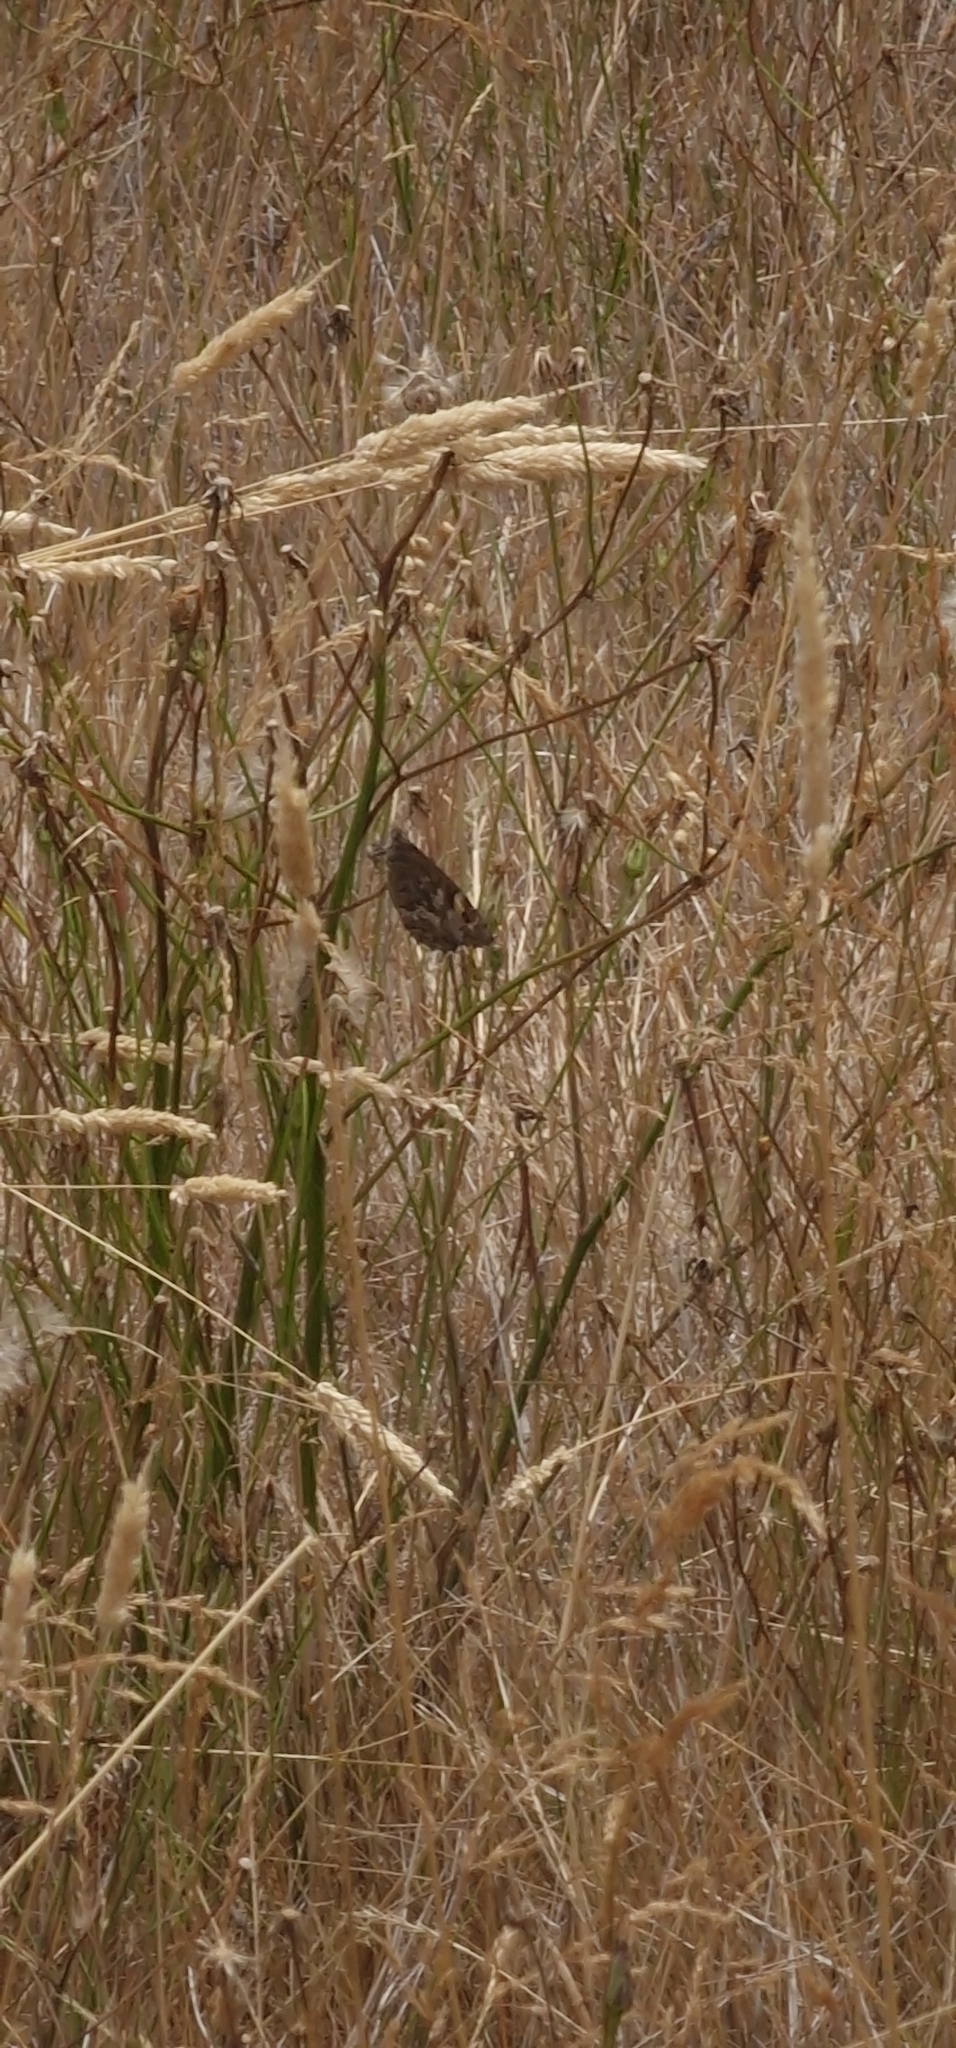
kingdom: Animalia
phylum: Arthropoda
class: Insecta
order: Lepidoptera
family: Nymphalidae
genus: Hipparchia
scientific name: Hipparchia algirica
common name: Mountain grayling
